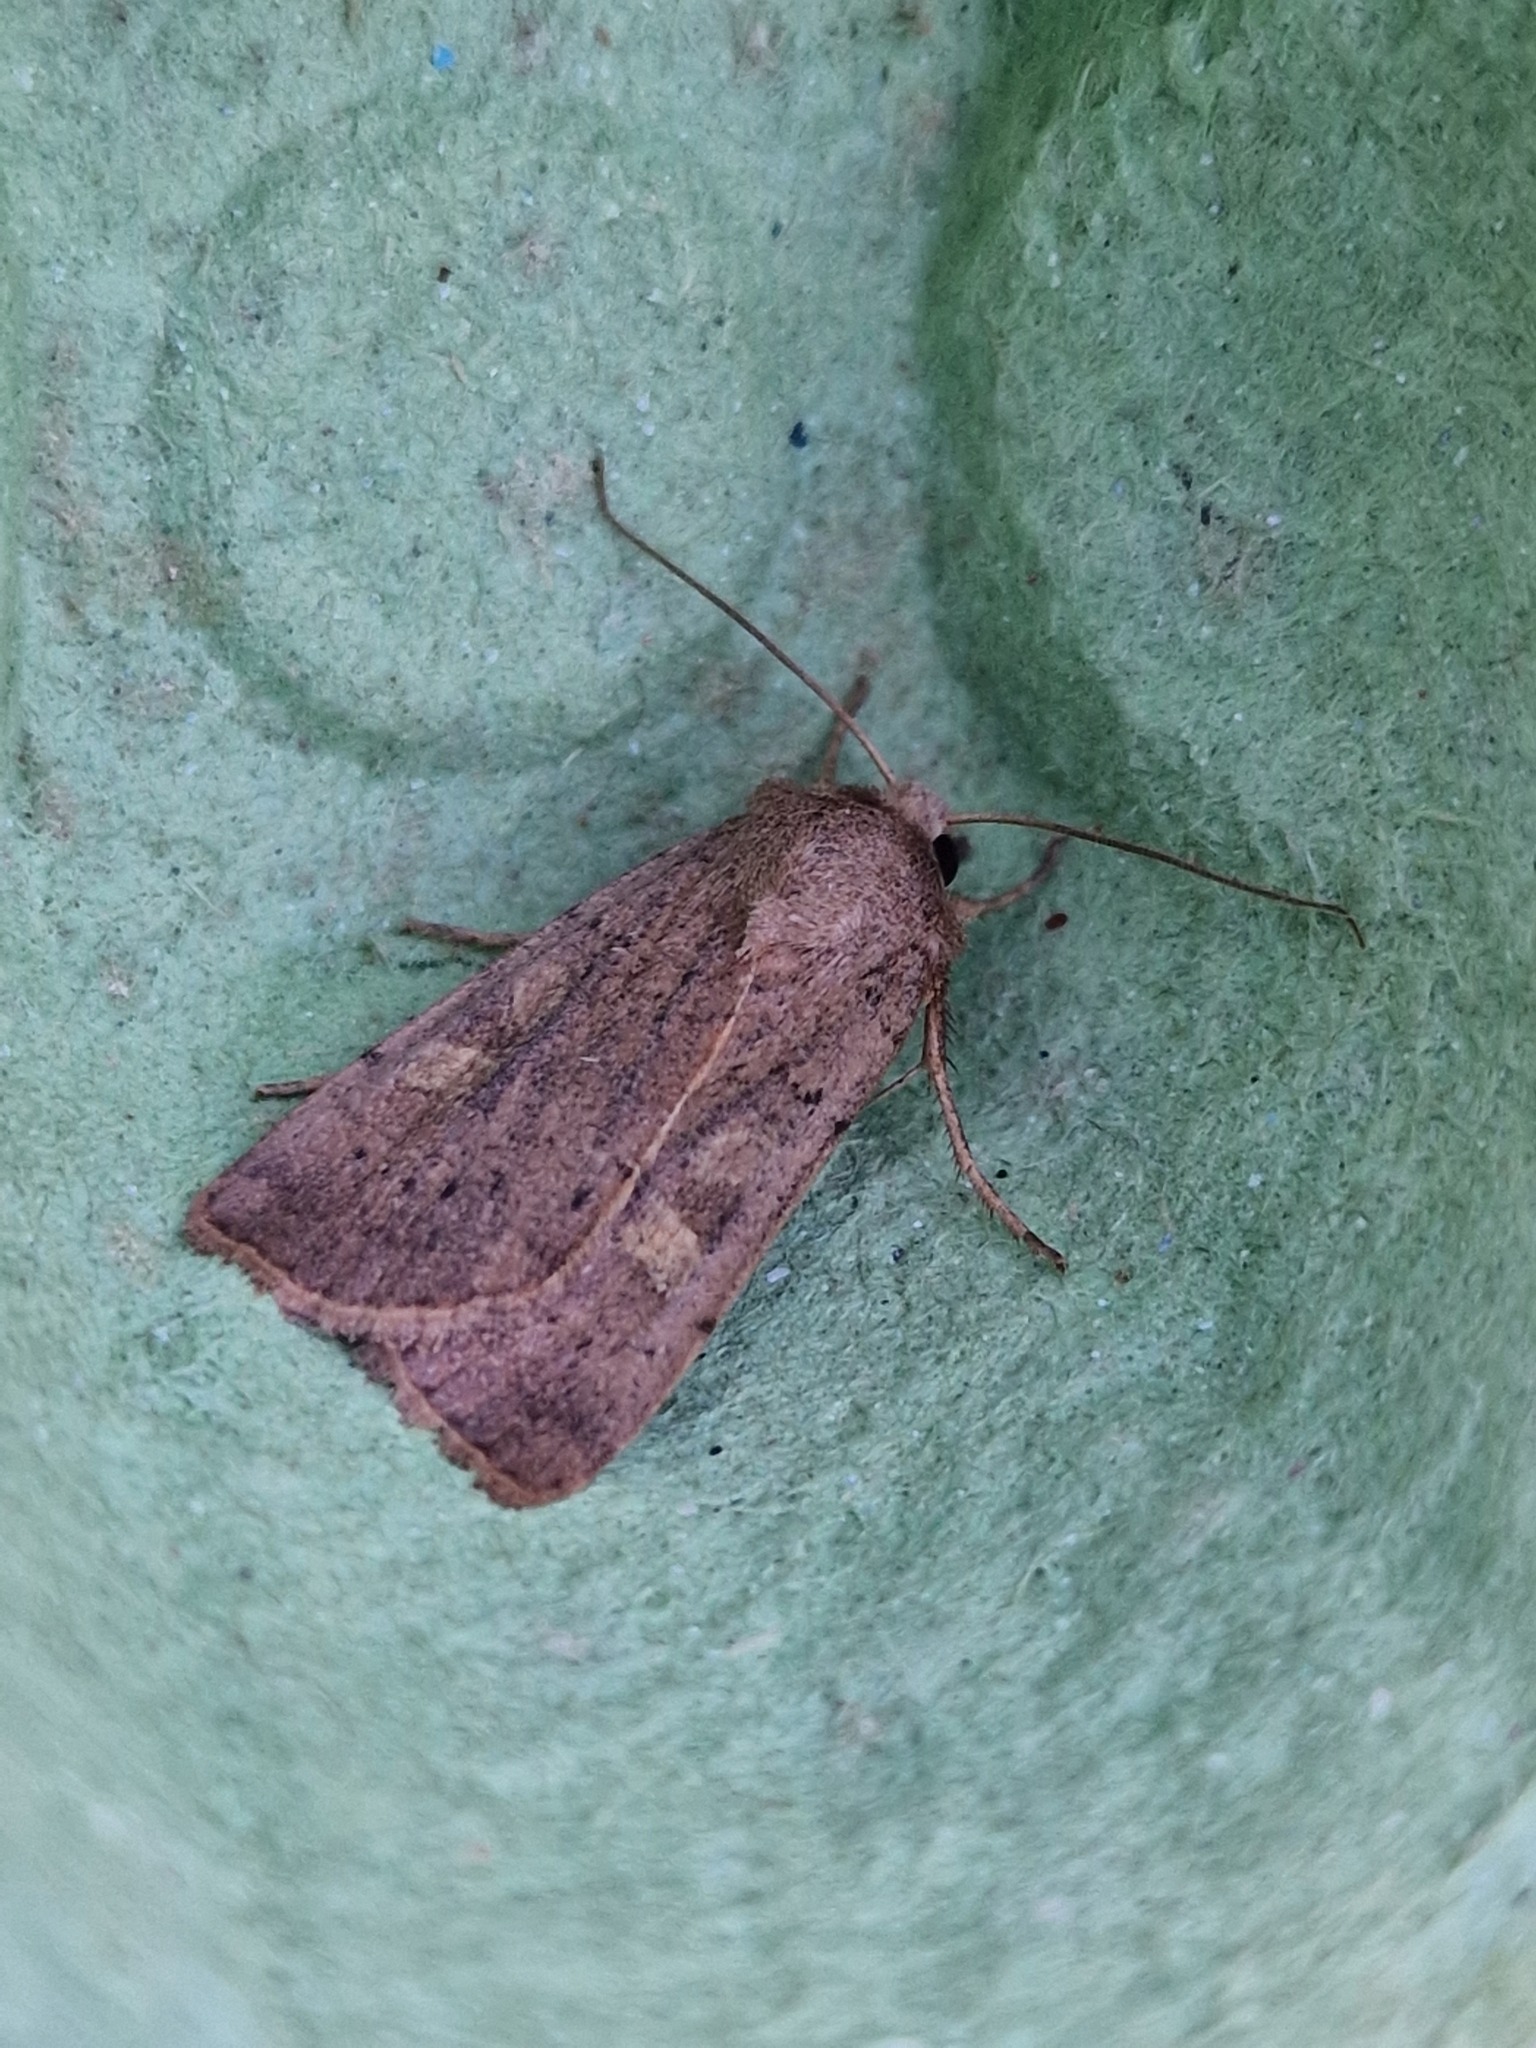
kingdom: Animalia
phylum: Arthropoda
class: Insecta
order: Lepidoptera
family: Noctuidae
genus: Xestia
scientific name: Xestia xanthographa
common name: Square-spot rustic
